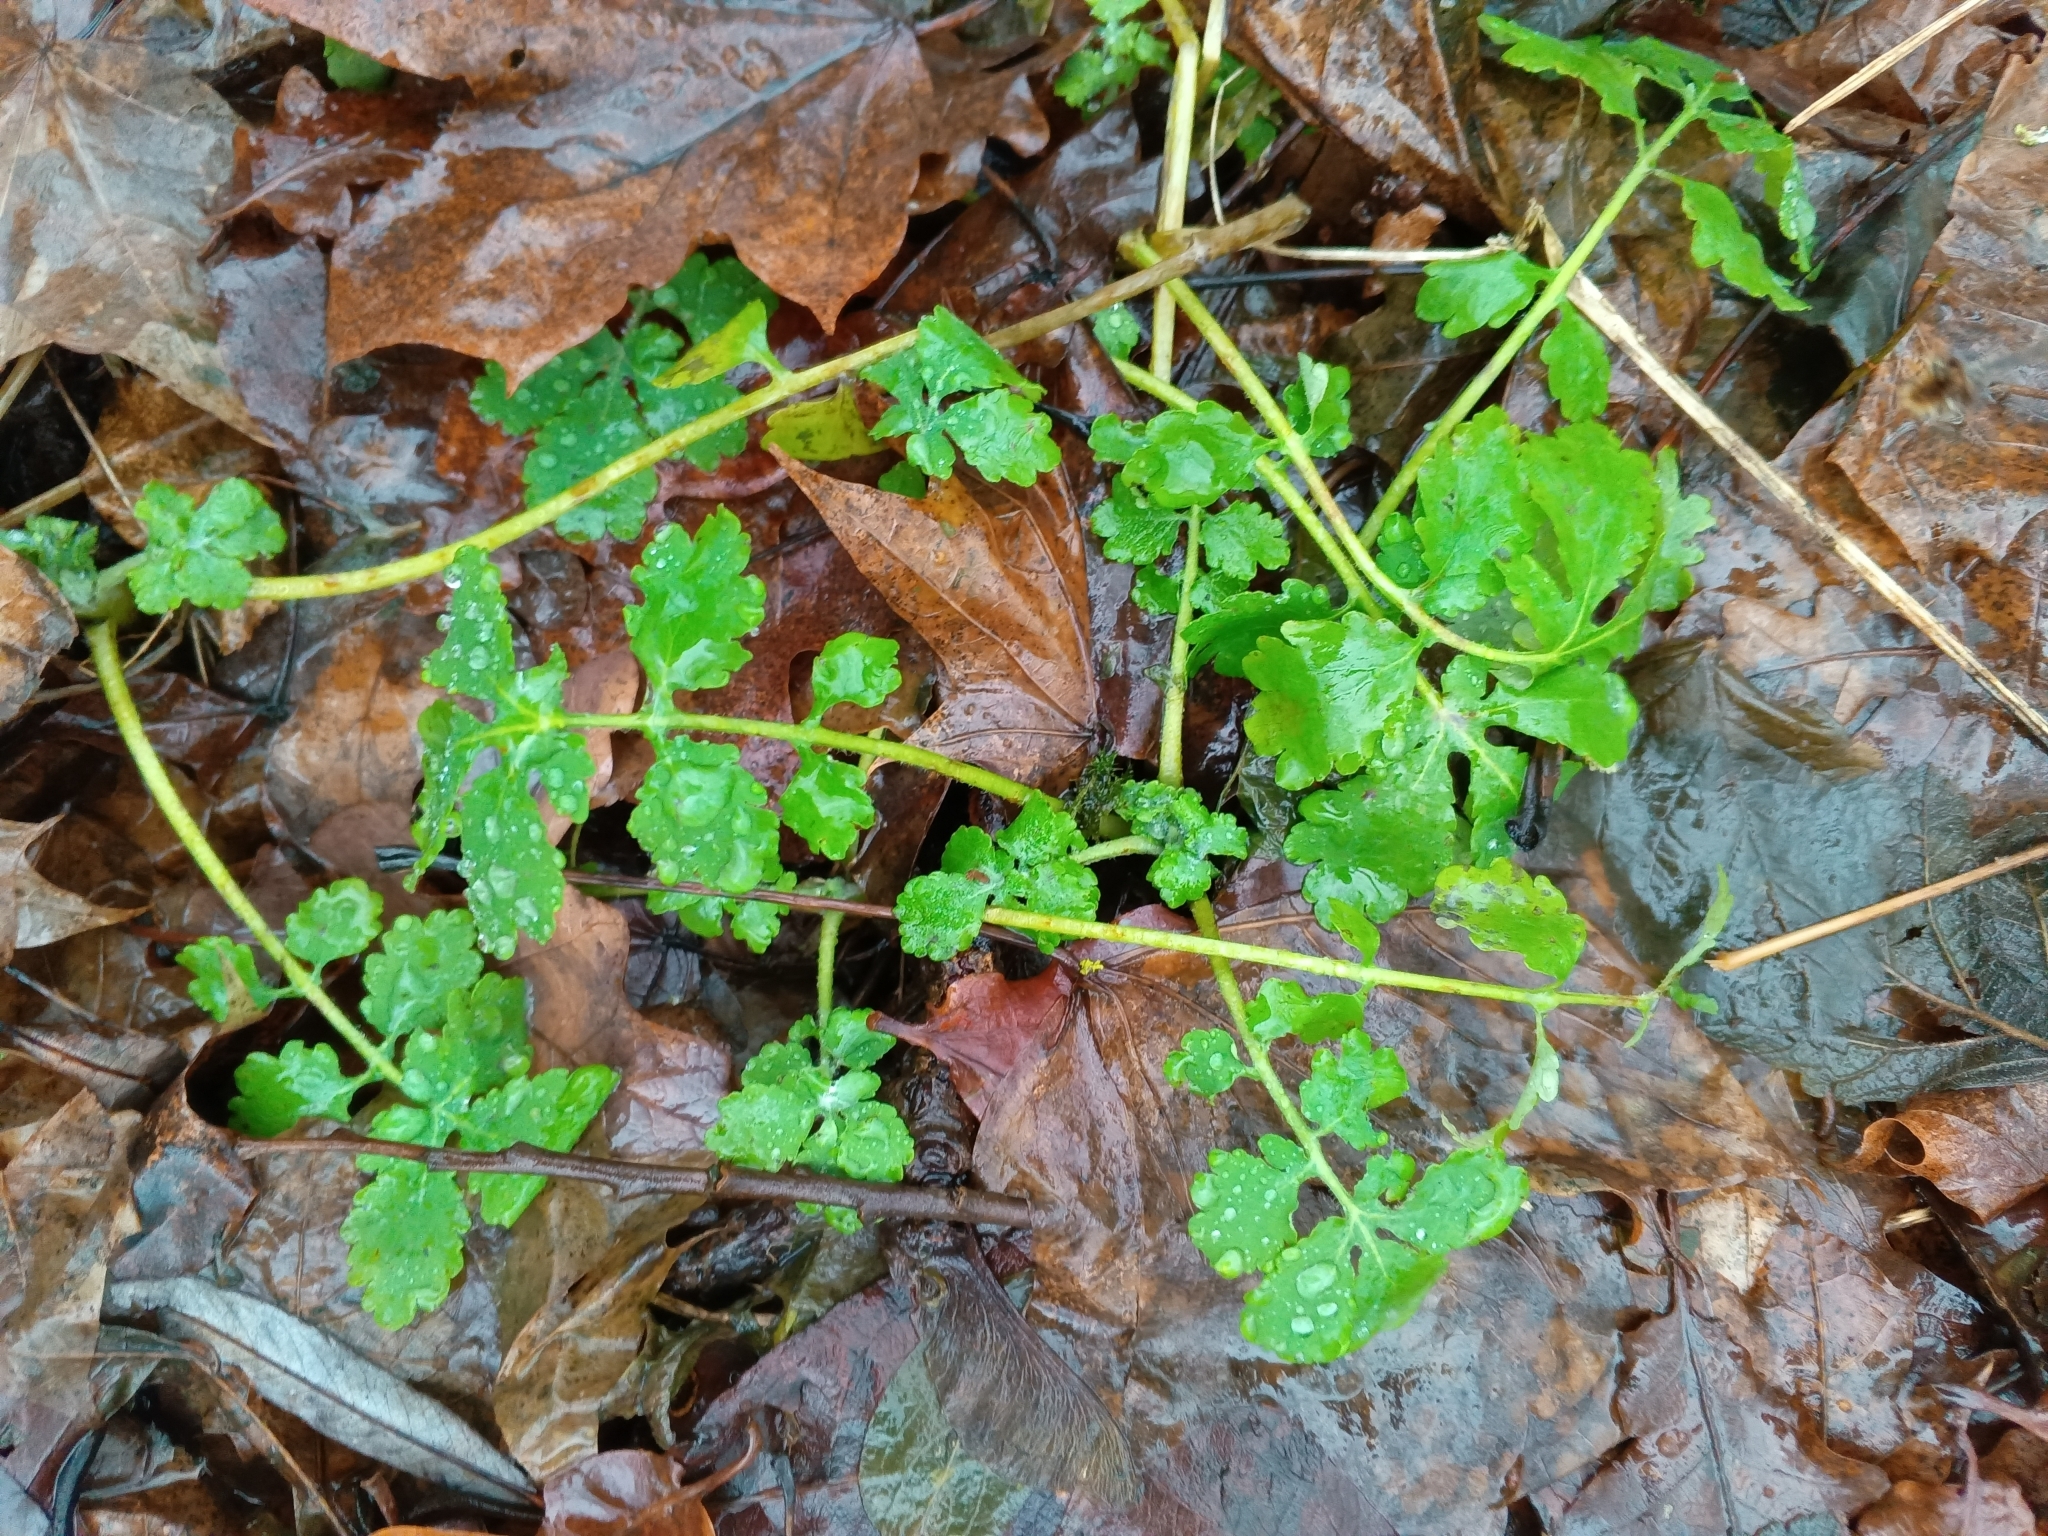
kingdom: Plantae
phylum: Tracheophyta
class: Magnoliopsida
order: Ranunculales
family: Papaveraceae
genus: Chelidonium
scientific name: Chelidonium majus
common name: Greater celandine
